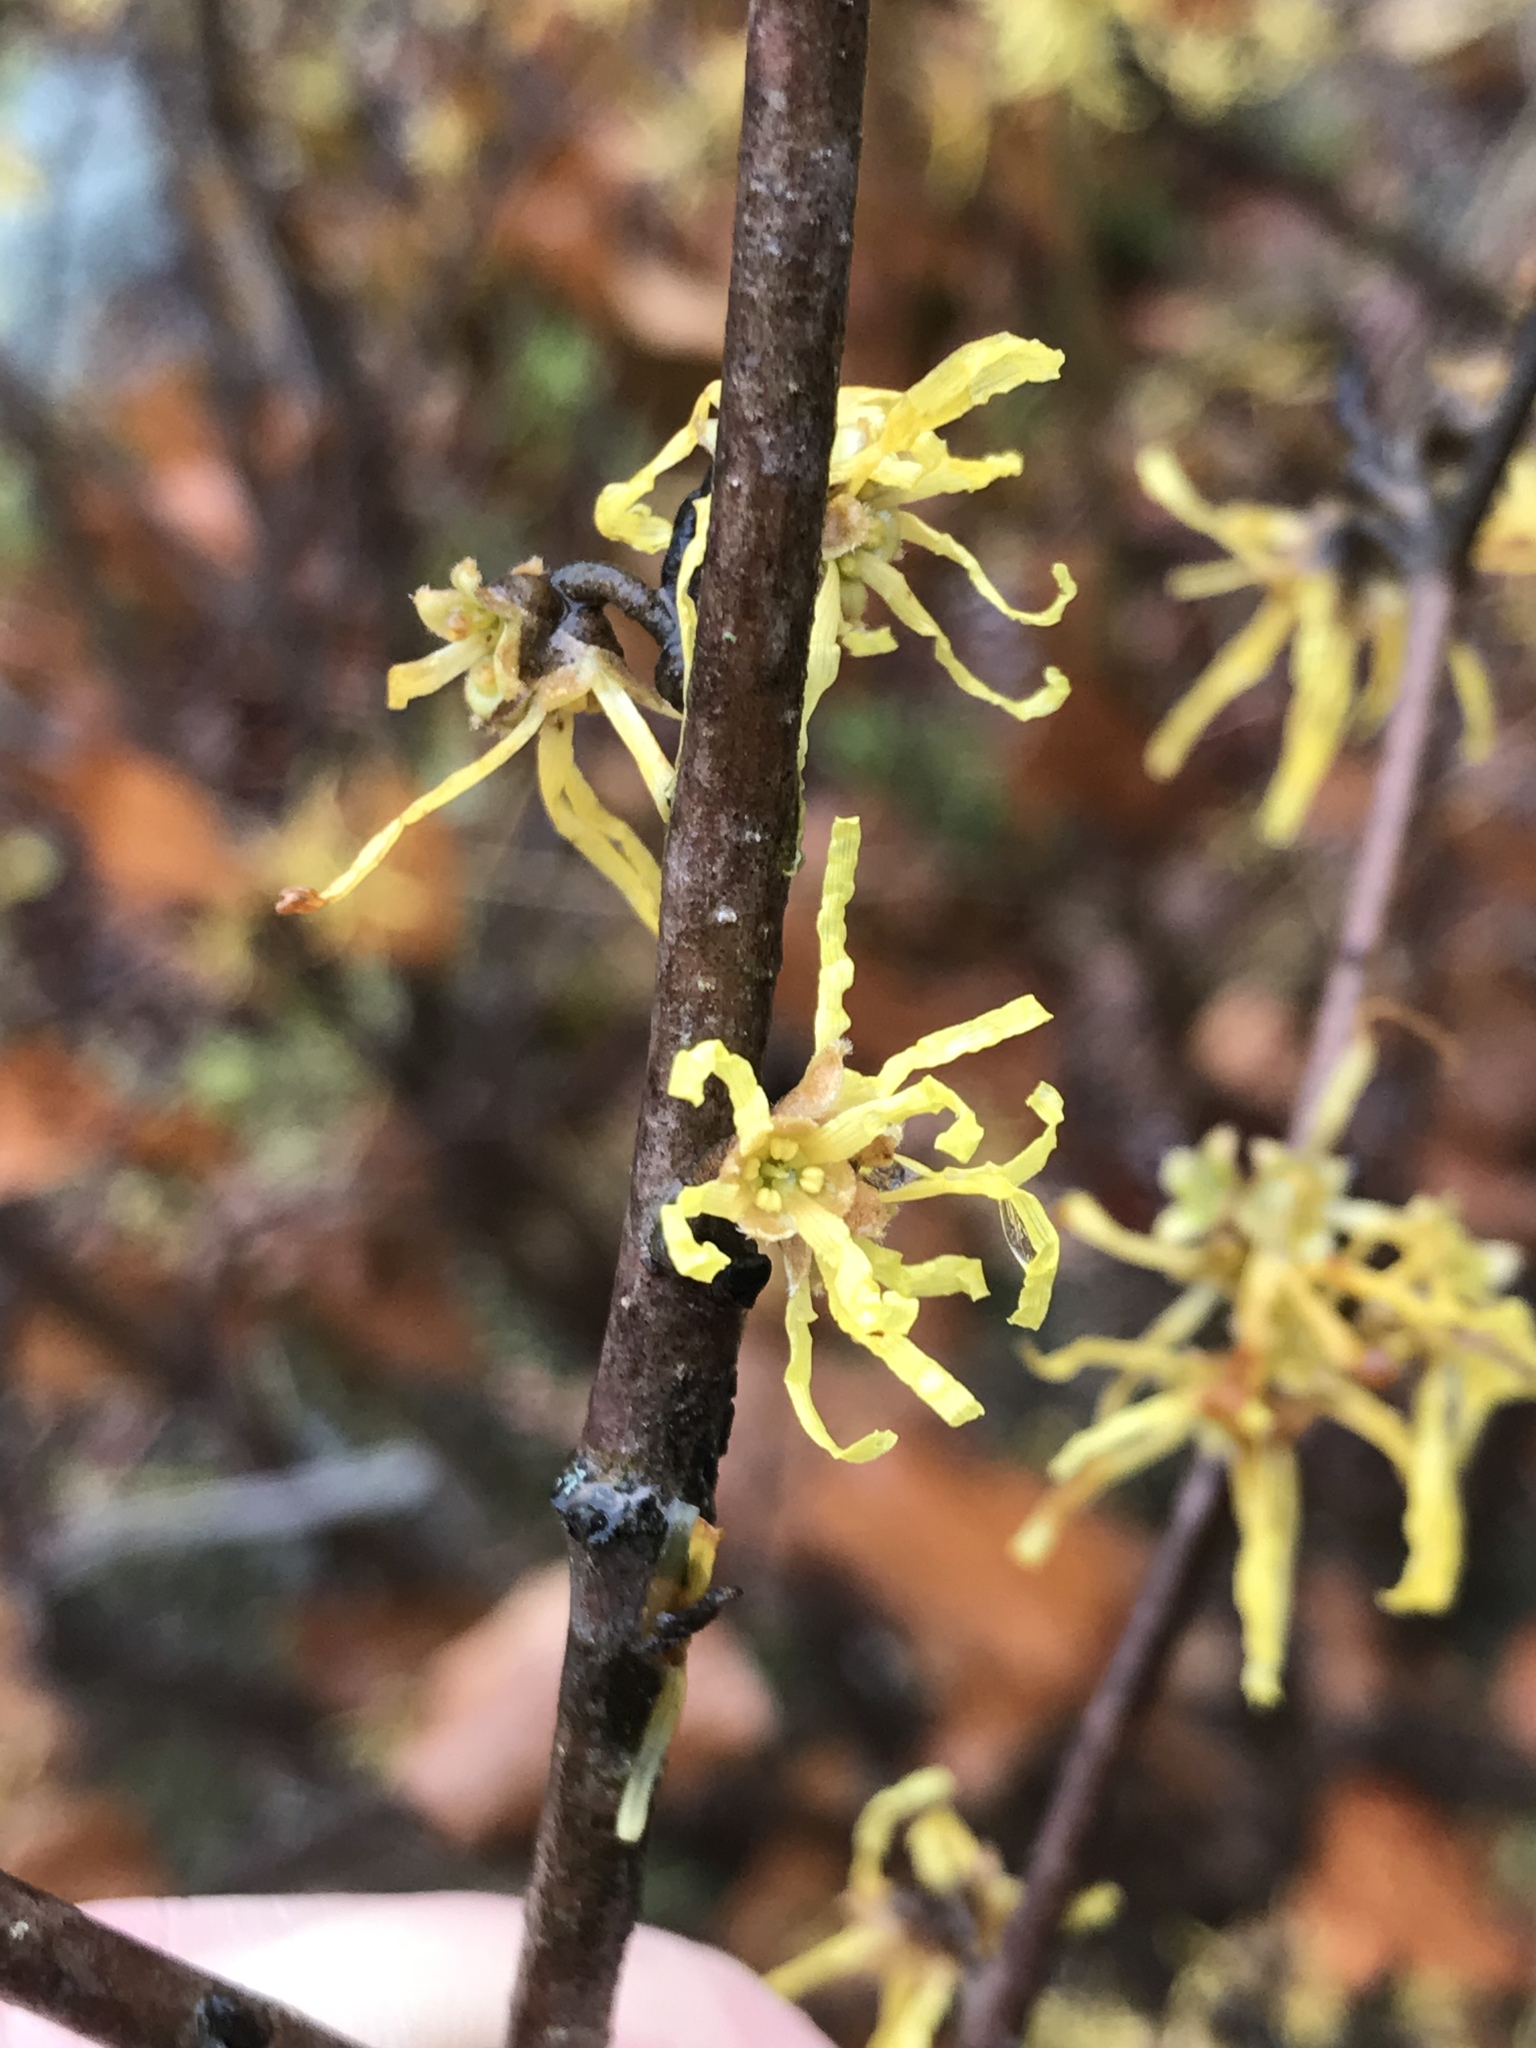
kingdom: Plantae
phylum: Tracheophyta
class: Magnoliopsida
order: Saxifragales
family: Hamamelidaceae
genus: Hamamelis
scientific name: Hamamelis virginiana
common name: Witch-hazel
